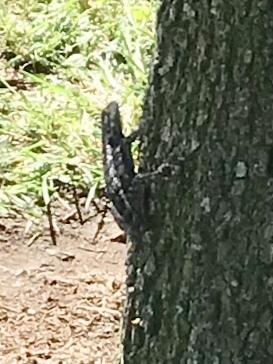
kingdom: Animalia
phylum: Chordata
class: Squamata
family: Phrynosomatidae
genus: Sceloporus
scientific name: Sceloporus olivaceus
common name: Texas spiny lizard
